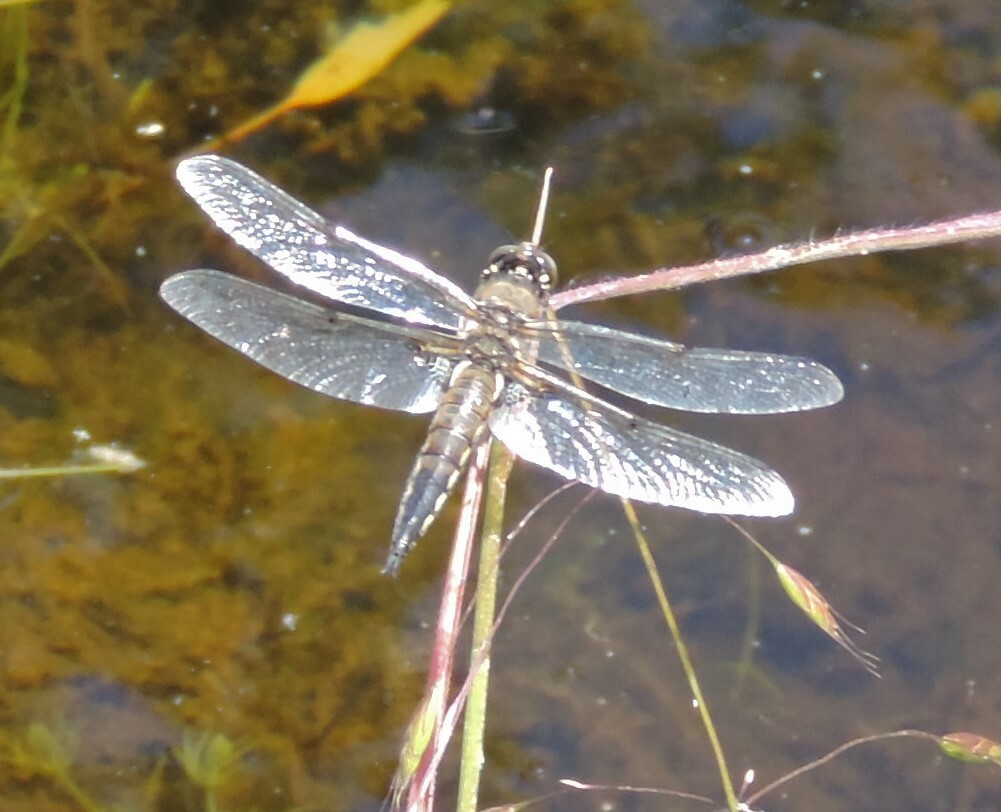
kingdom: Animalia
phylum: Arthropoda
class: Insecta
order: Odonata
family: Libellulidae
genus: Libellula
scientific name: Libellula quadrimaculata
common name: Four-spotted chaser
